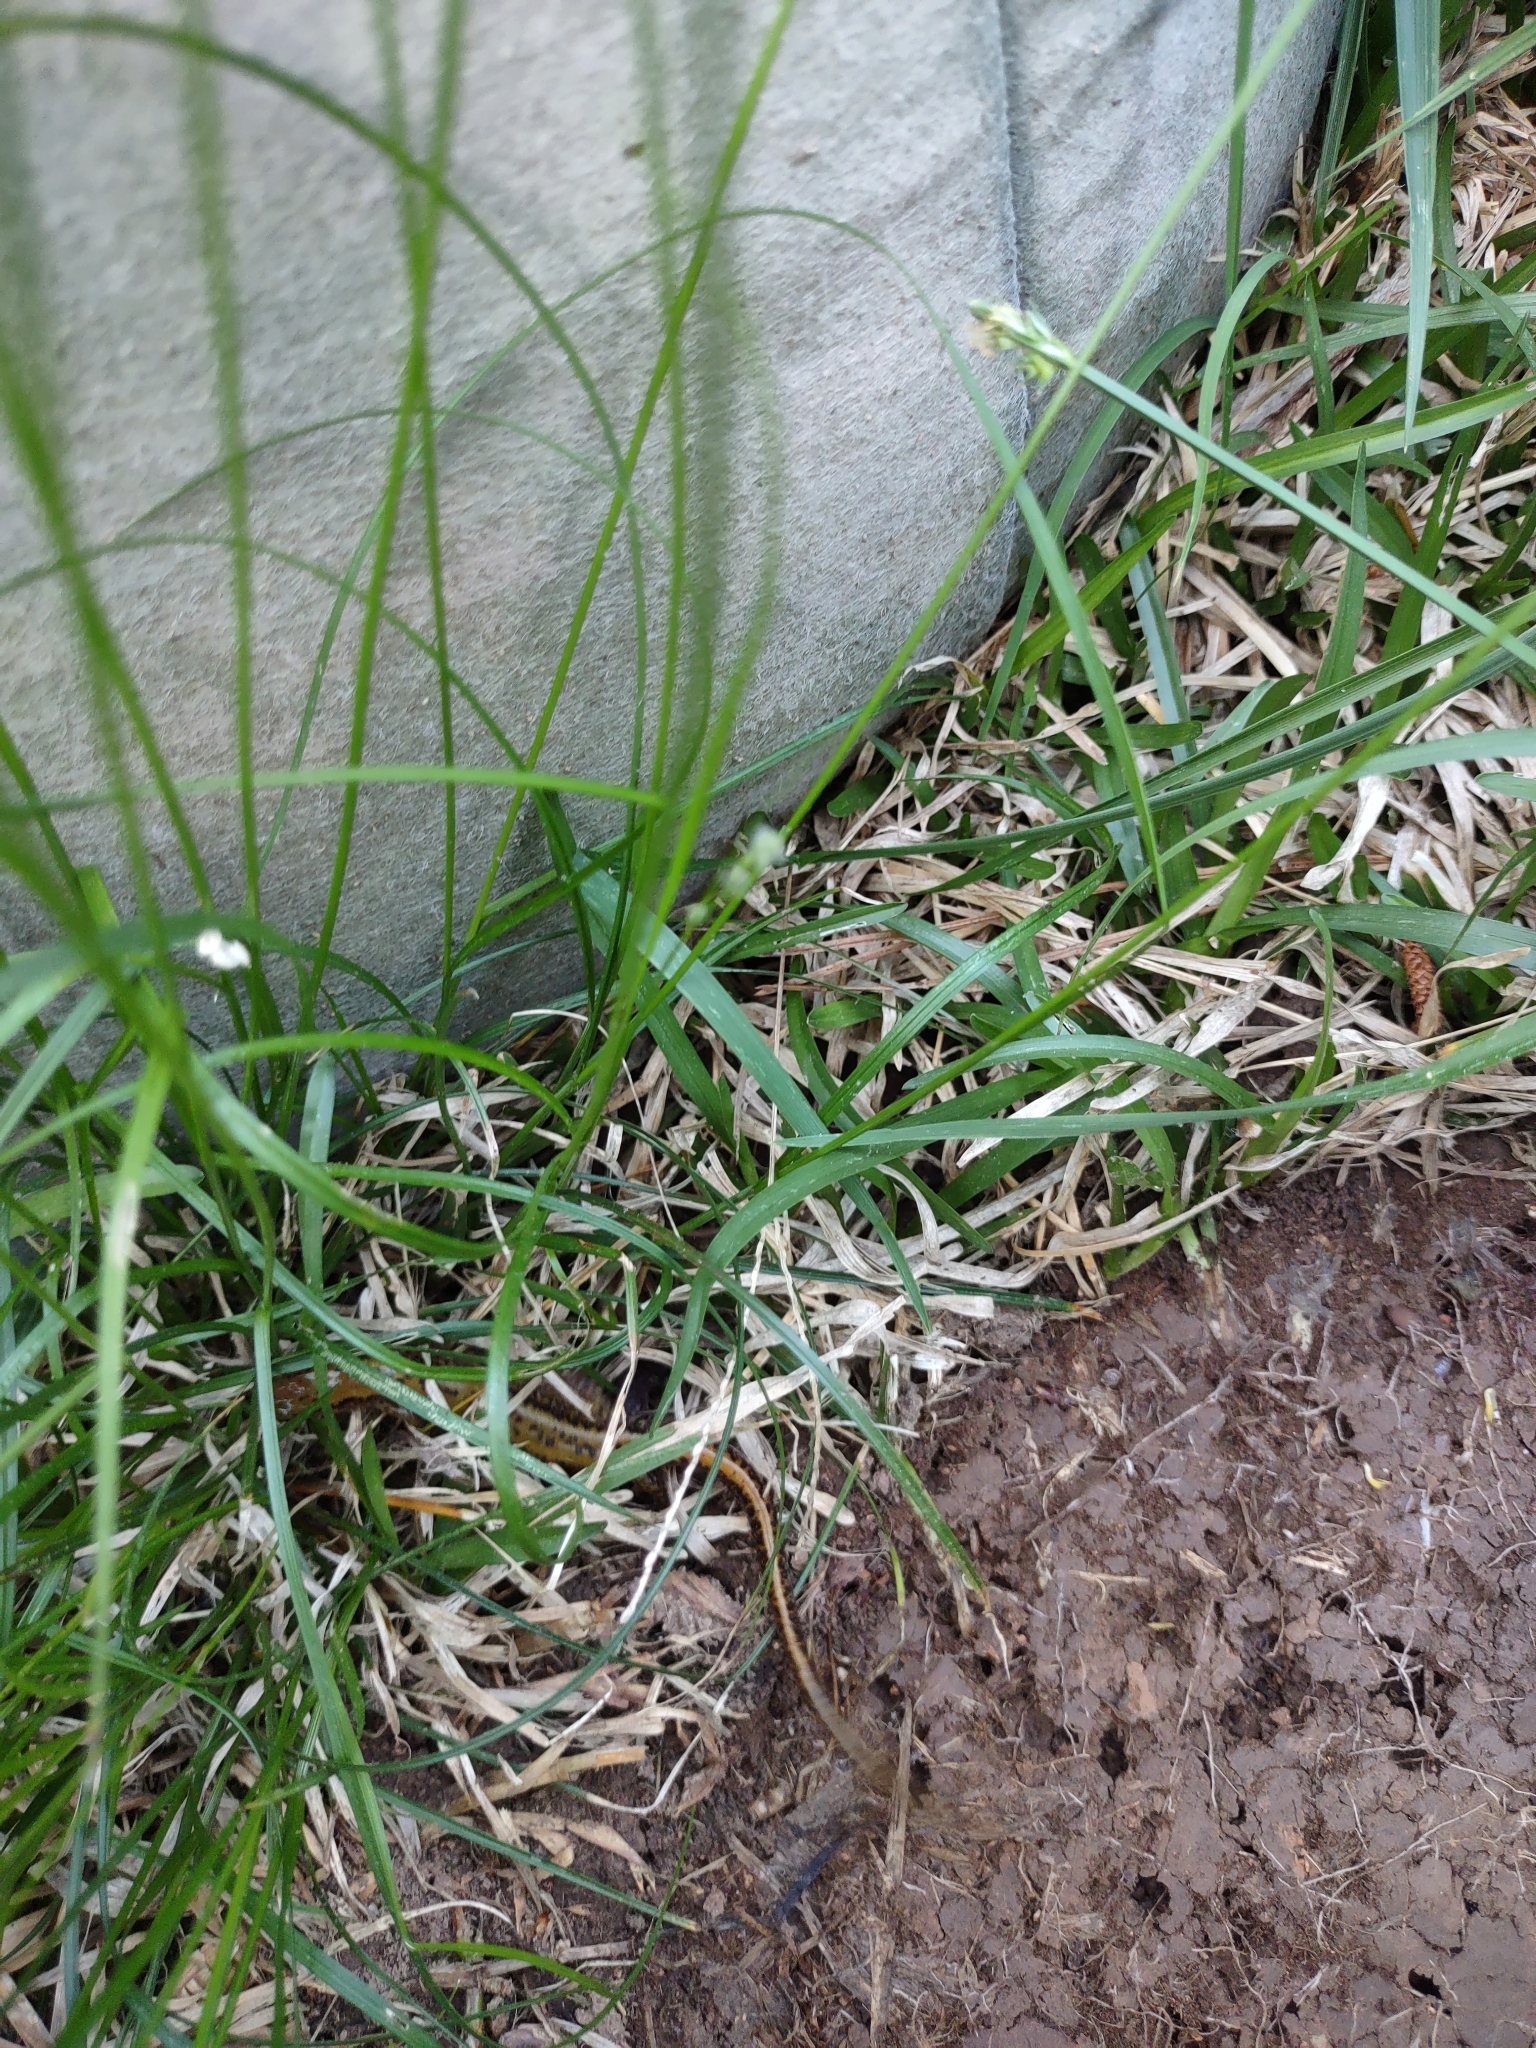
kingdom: Animalia
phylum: Chordata
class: Amphibia
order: Caudata
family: Plethodontidae
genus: Eurycea
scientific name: Eurycea cirrigera
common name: Southern two-lined salamander
